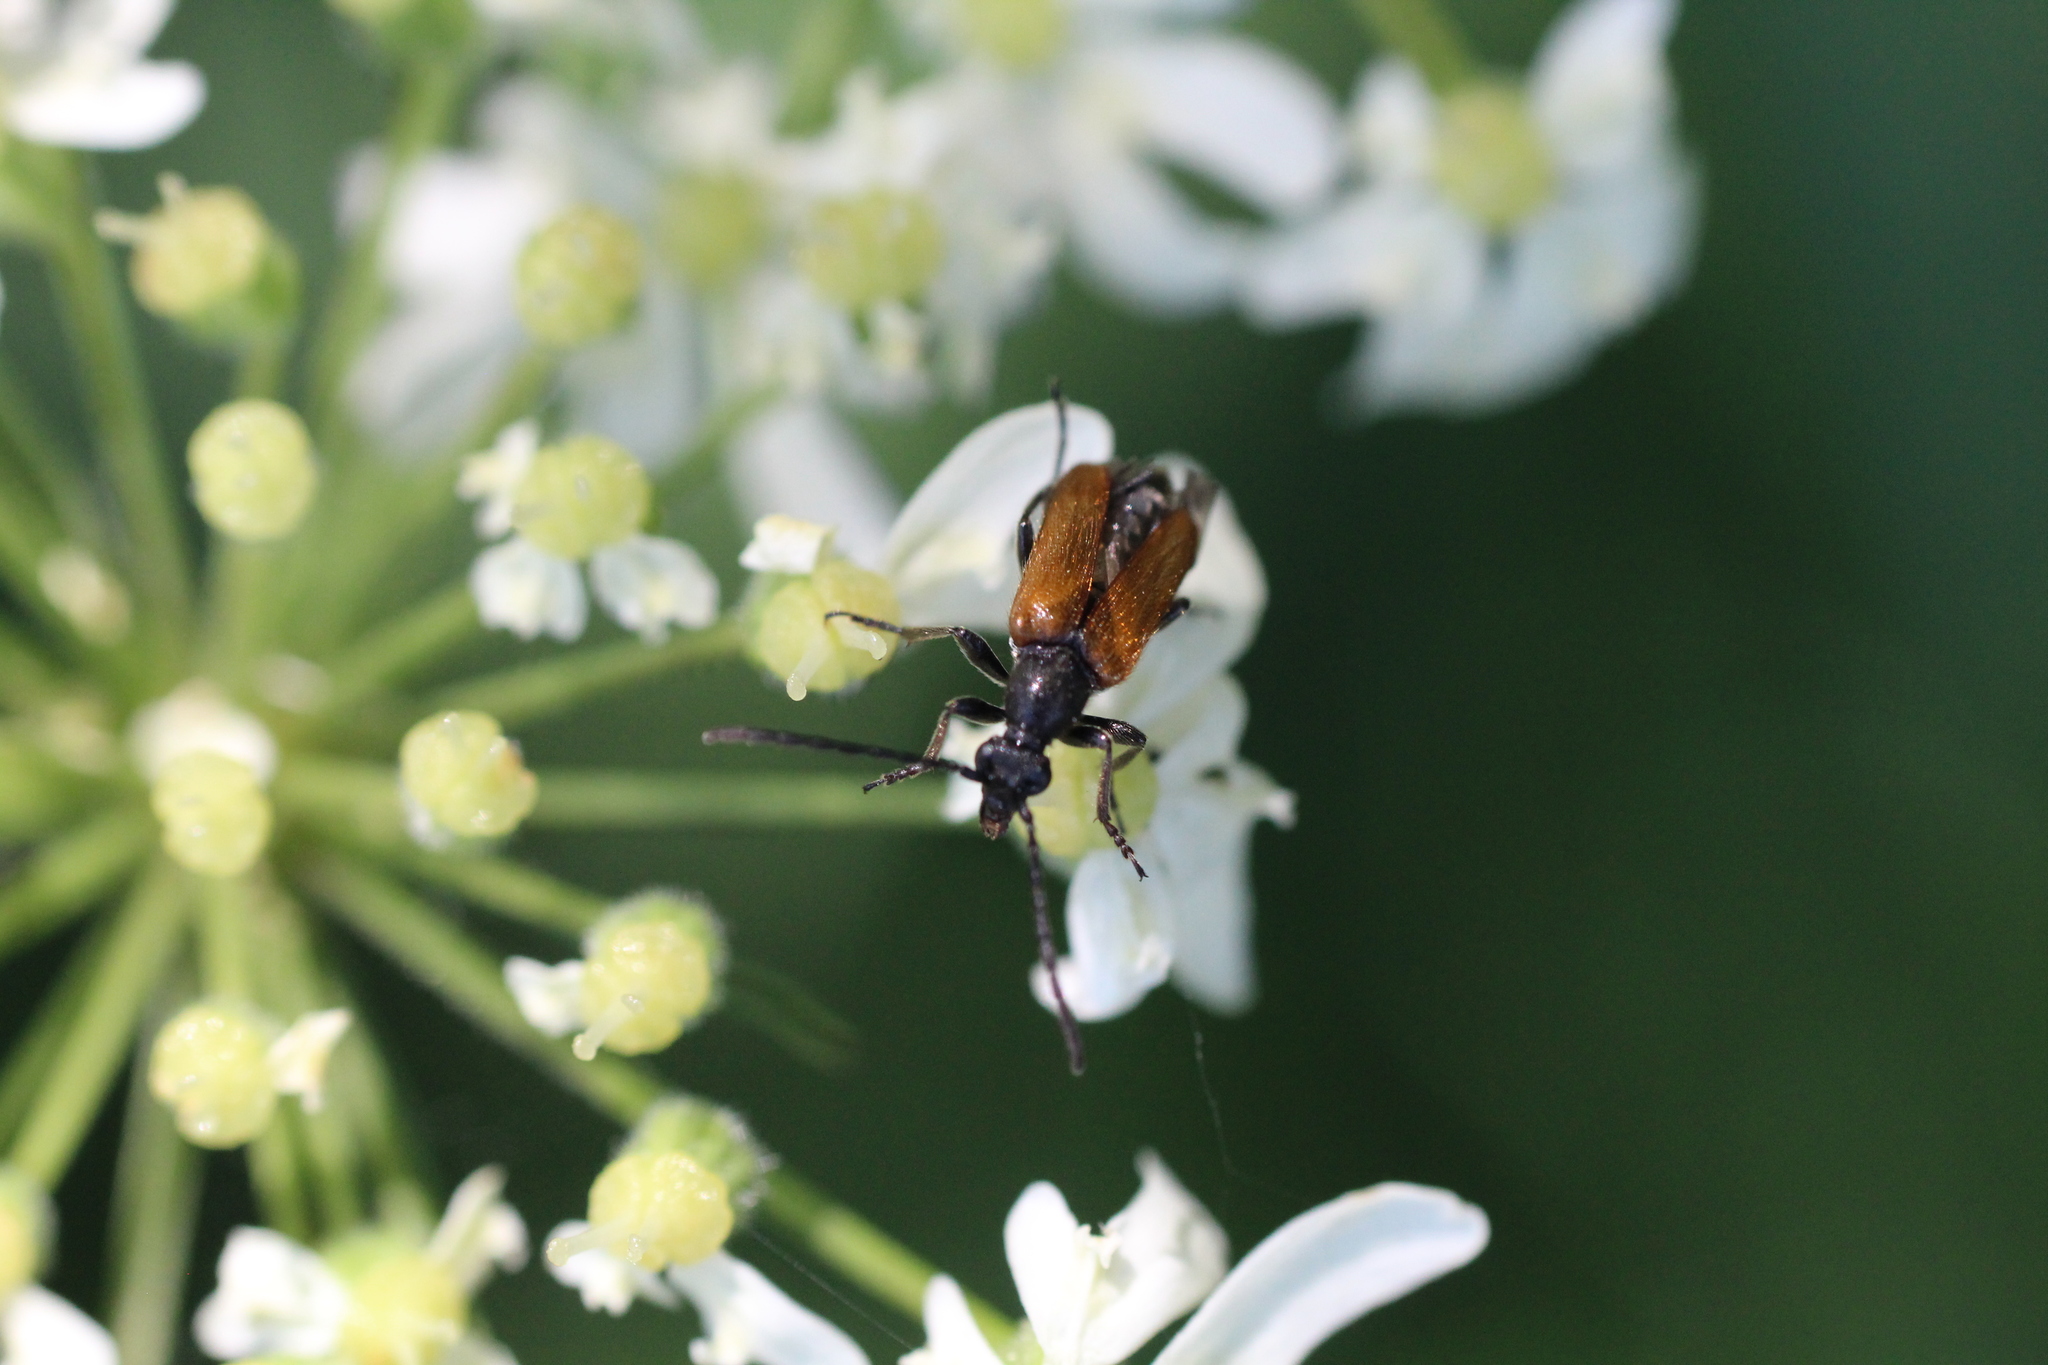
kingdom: Animalia
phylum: Arthropoda
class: Insecta
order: Coleoptera
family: Cerambycidae
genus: Pseudovadonia
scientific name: Pseudovadonia livida
